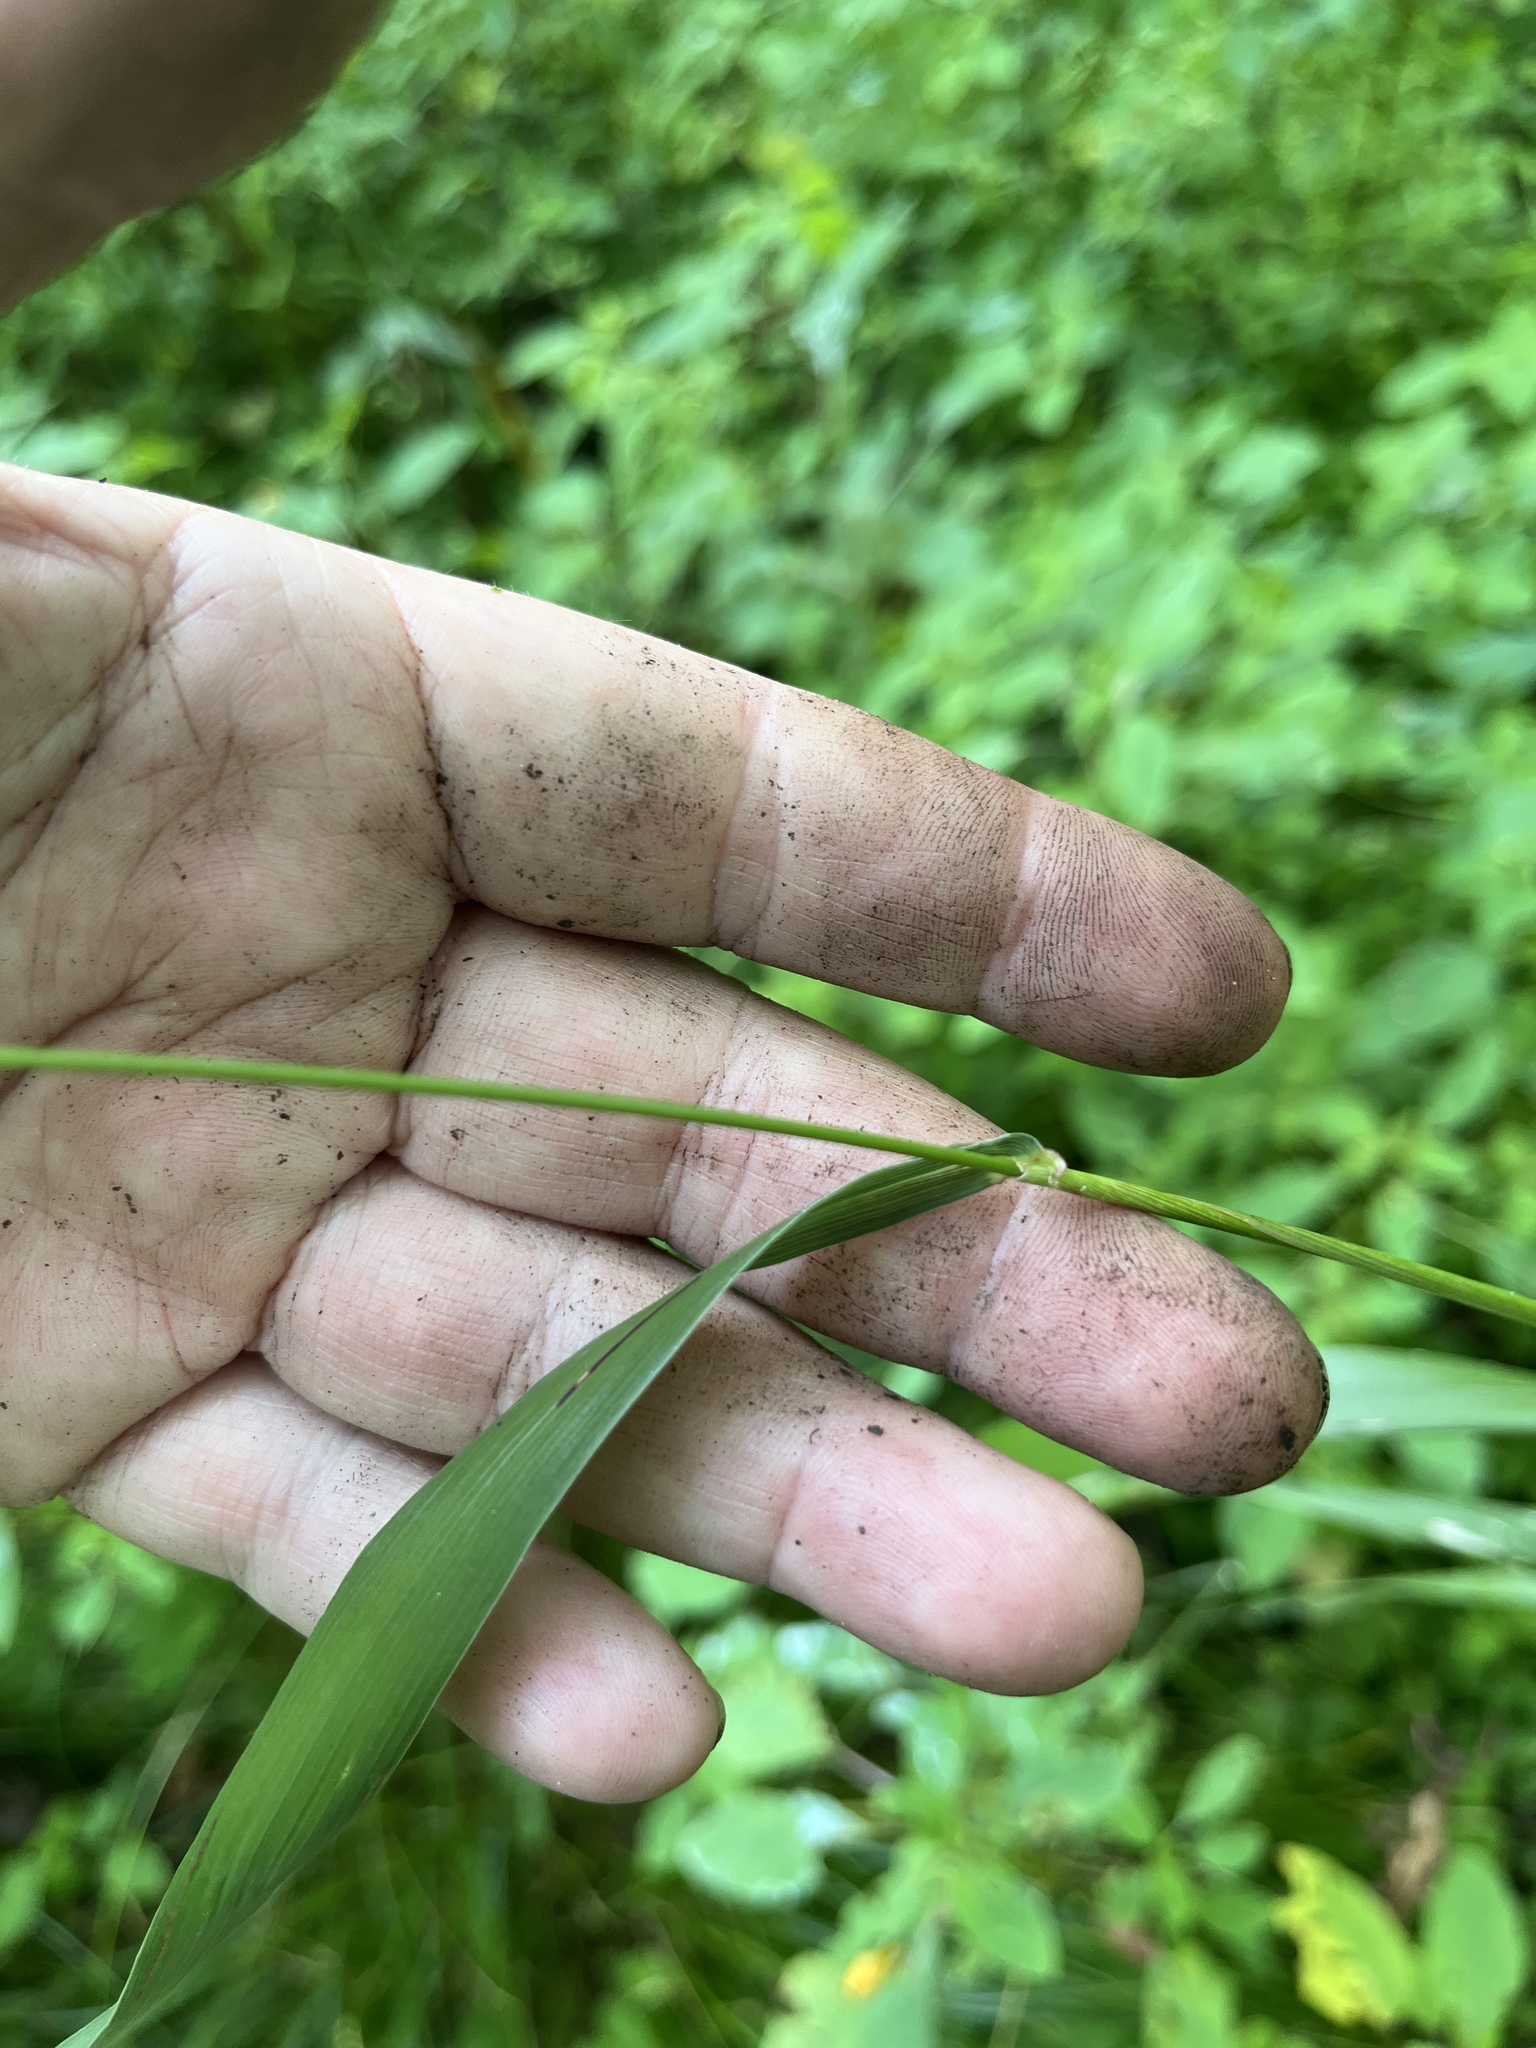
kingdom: Plantae
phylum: Tracheophyta
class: Liliopsida
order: Poales
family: Poaceae
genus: Elymus
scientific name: Elymus riparius
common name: Eastern riverbank wild rye
